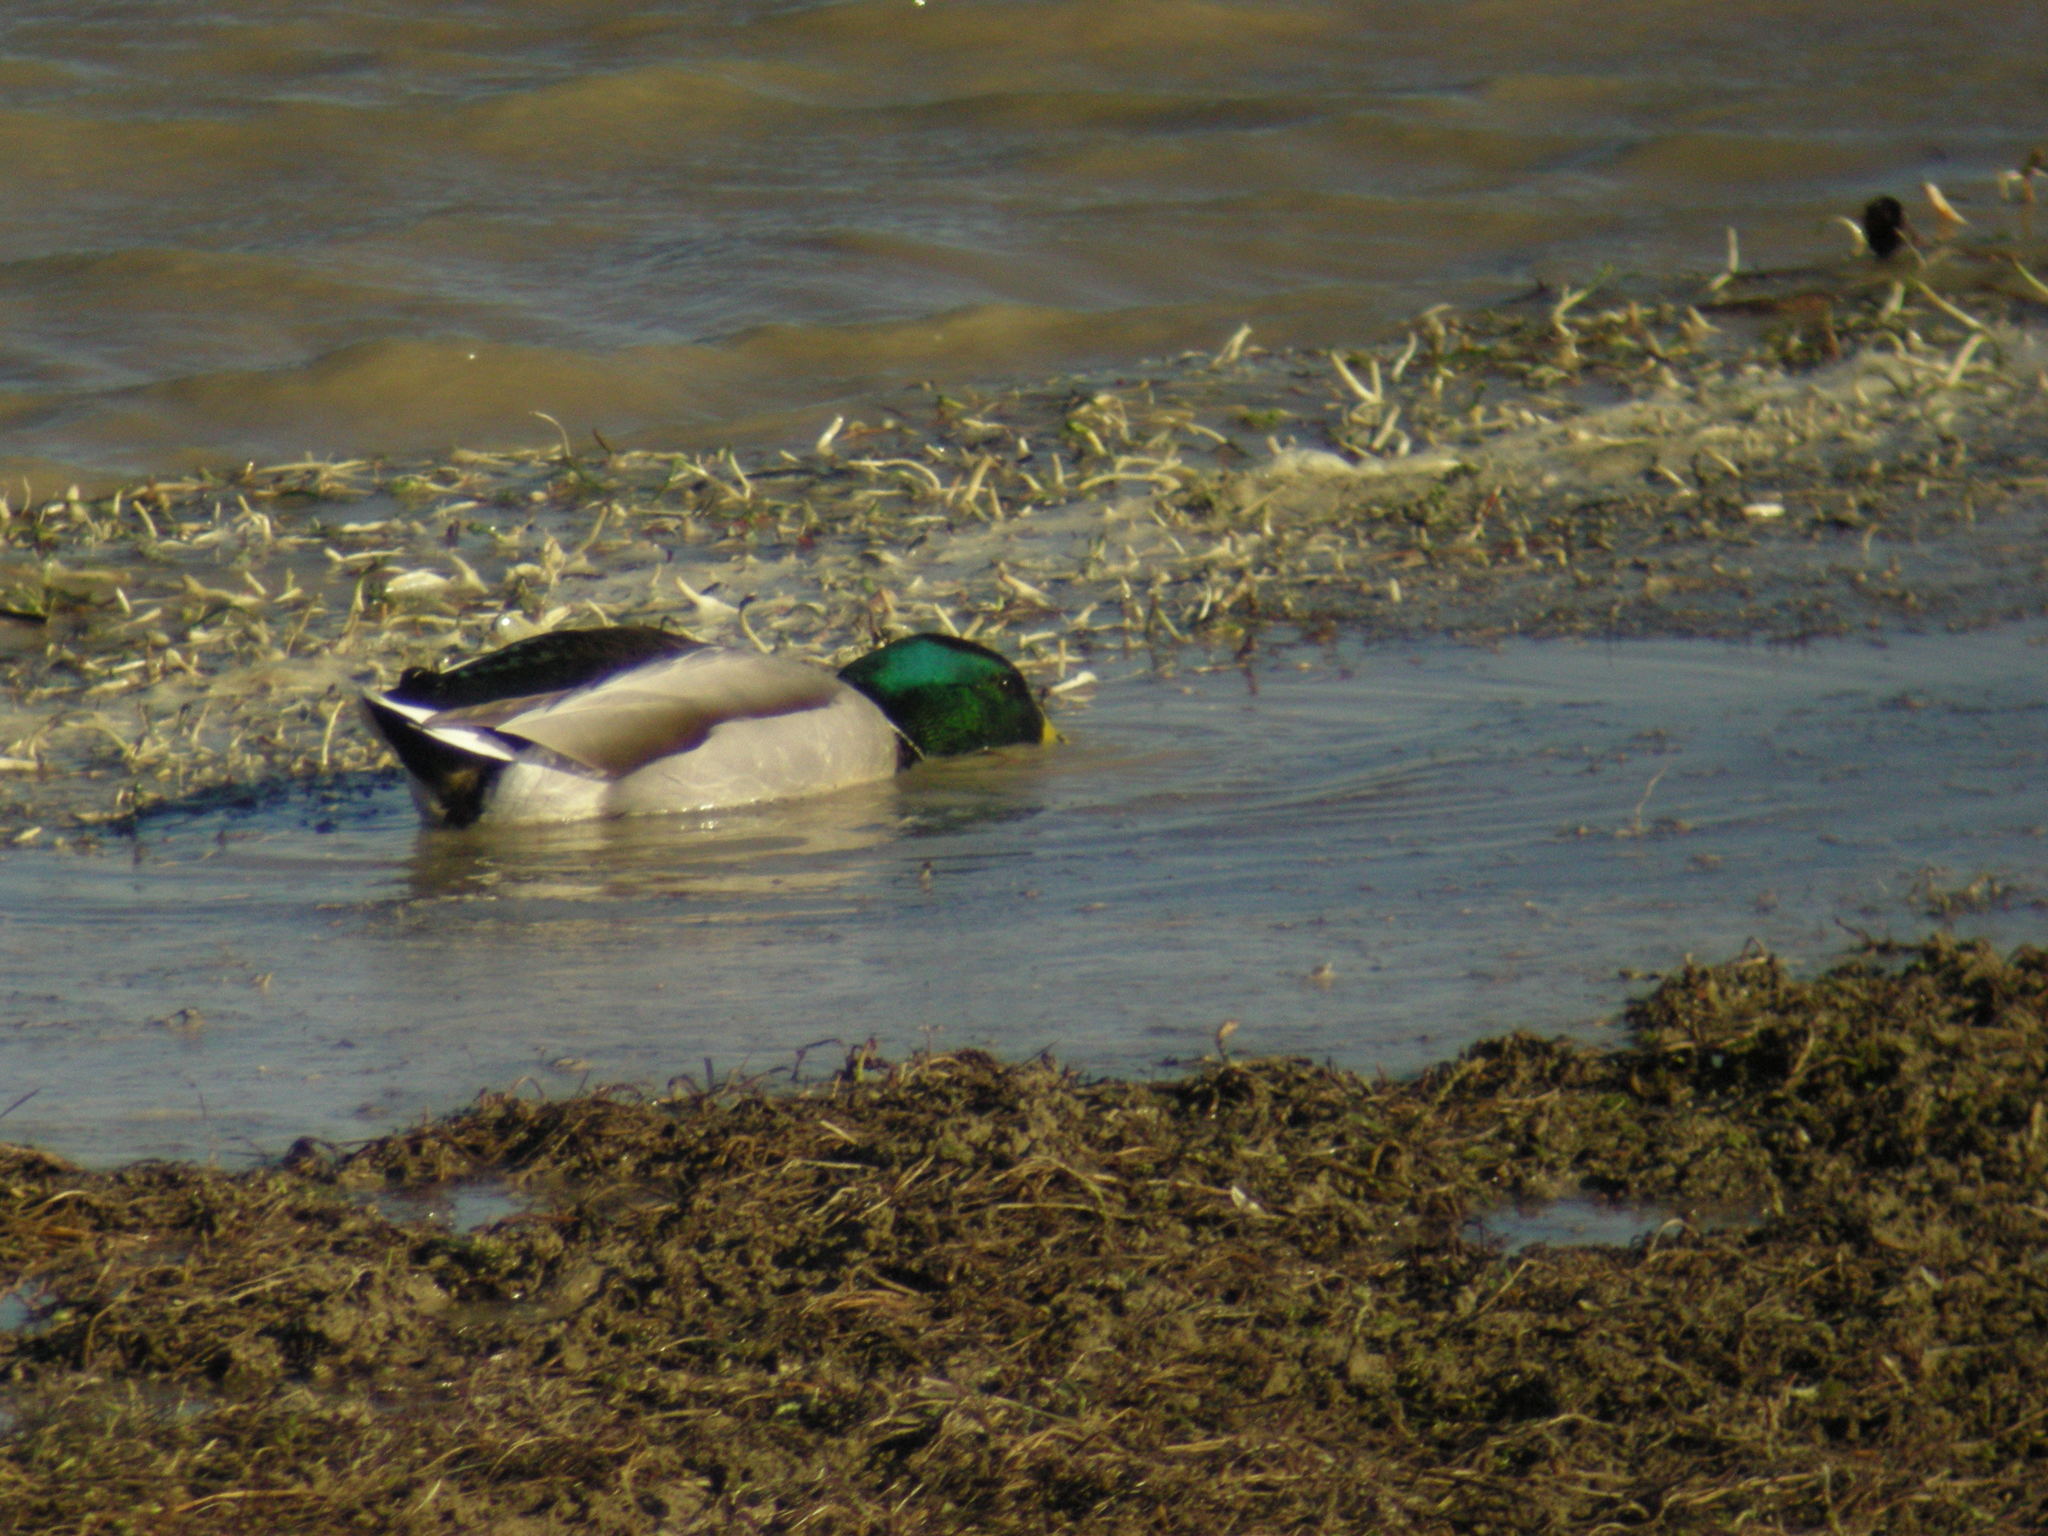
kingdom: Animalia
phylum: Chordata
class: Aves
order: Anseriformes
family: Anatidae
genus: Anas
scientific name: Anas platyrhynchos
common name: Mallard
